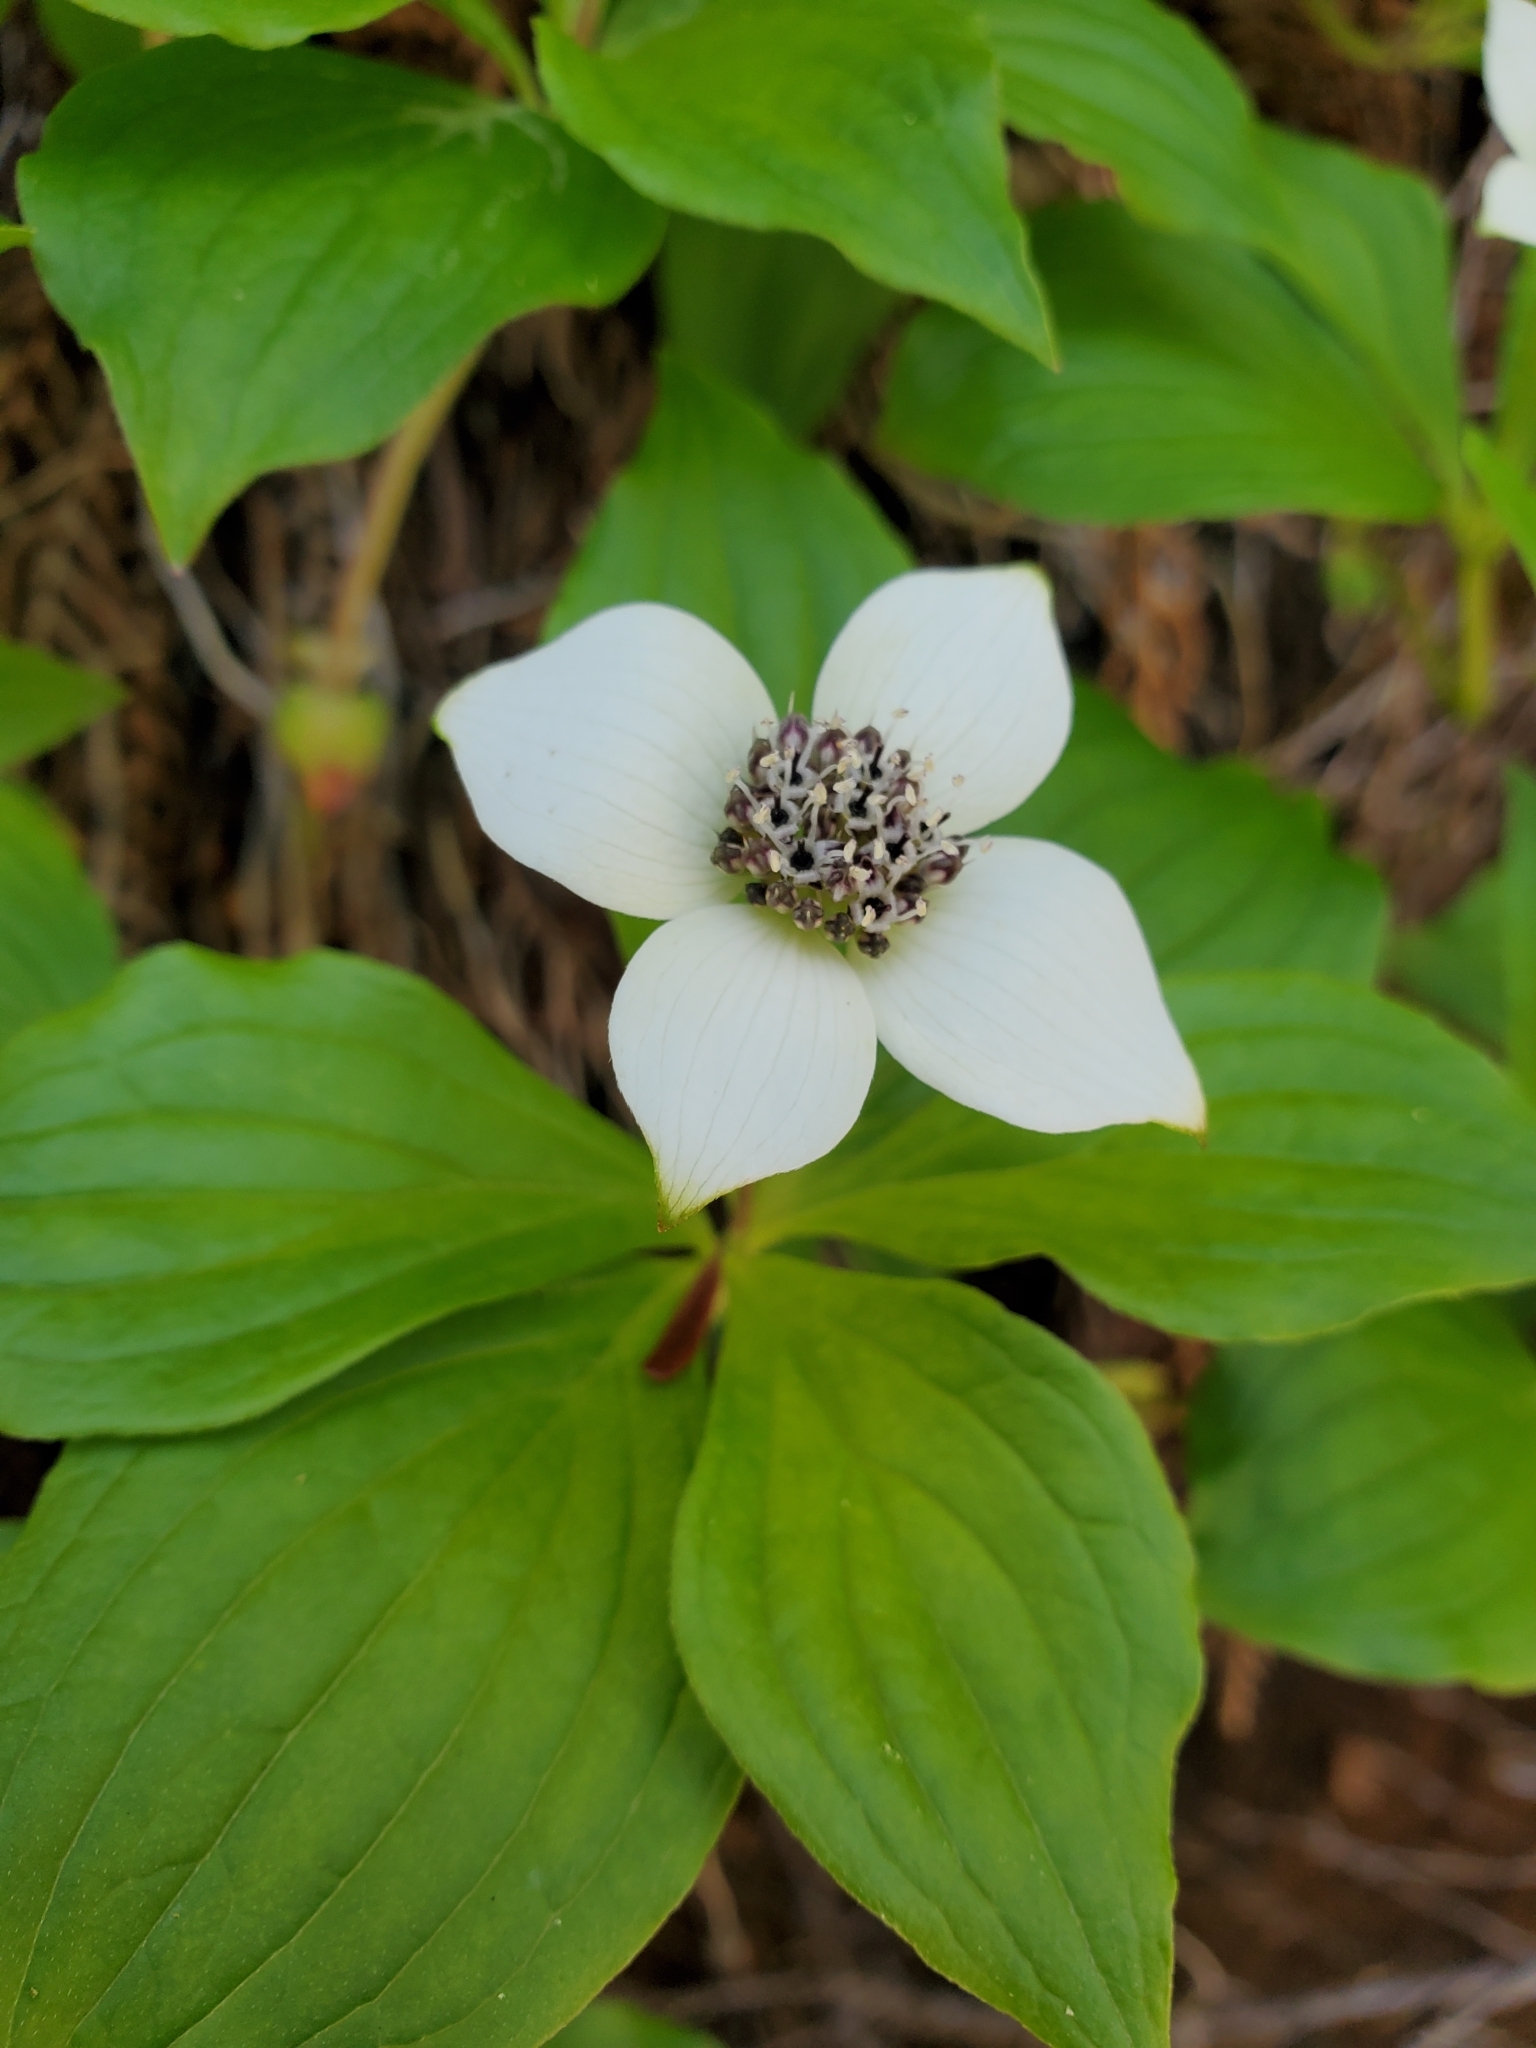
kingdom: Plantae
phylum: Tracheophyta
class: Magnoliopsida
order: Cornales
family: Cornaceae
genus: Cornus
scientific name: Cornus unalaschkensis
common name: Alaska bunchberry
